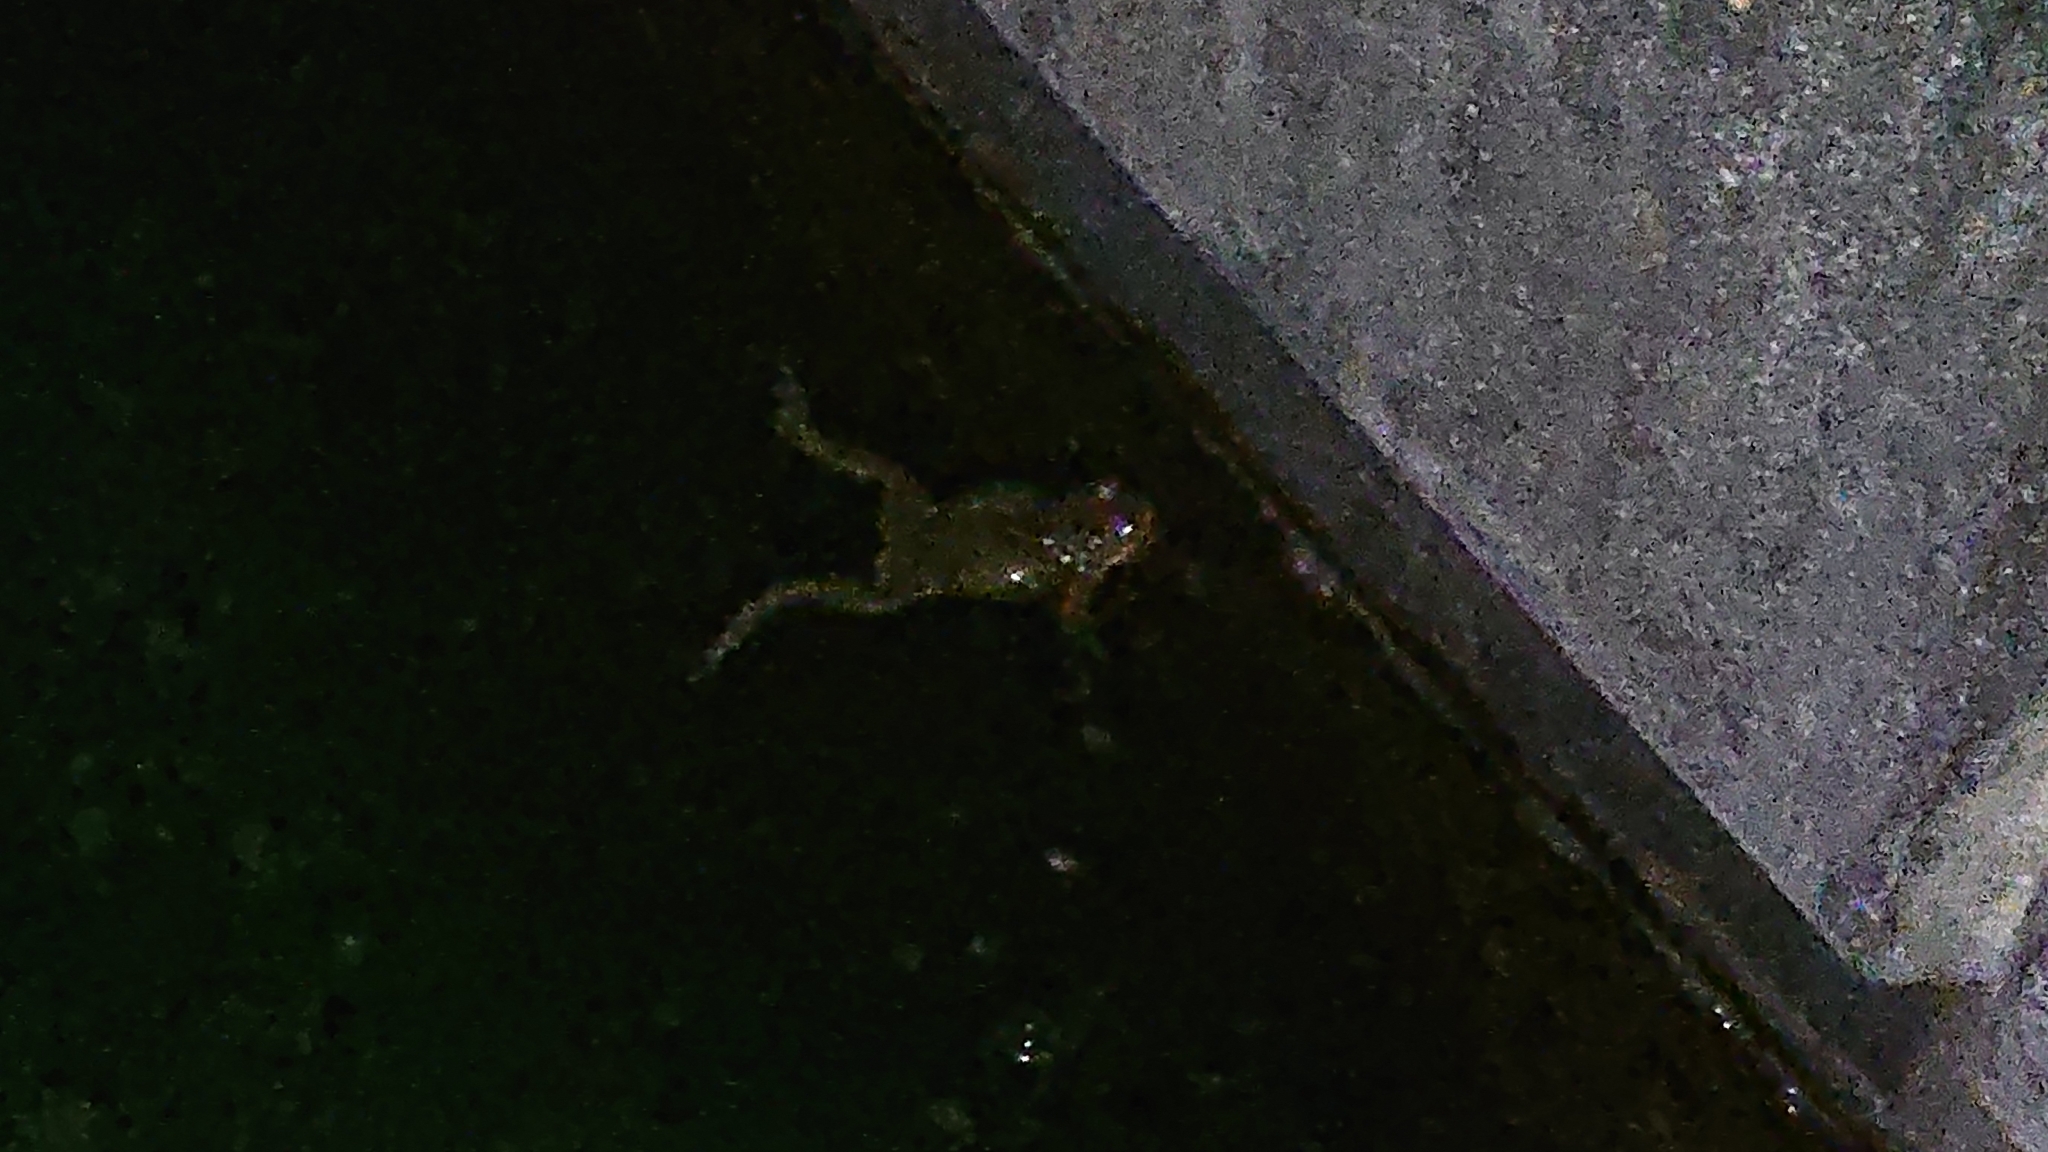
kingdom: Animalia
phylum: Chordata
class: Amphibia
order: Anura
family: Bufonidae
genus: Bufotes
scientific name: Bufotes viridis
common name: European green toad
